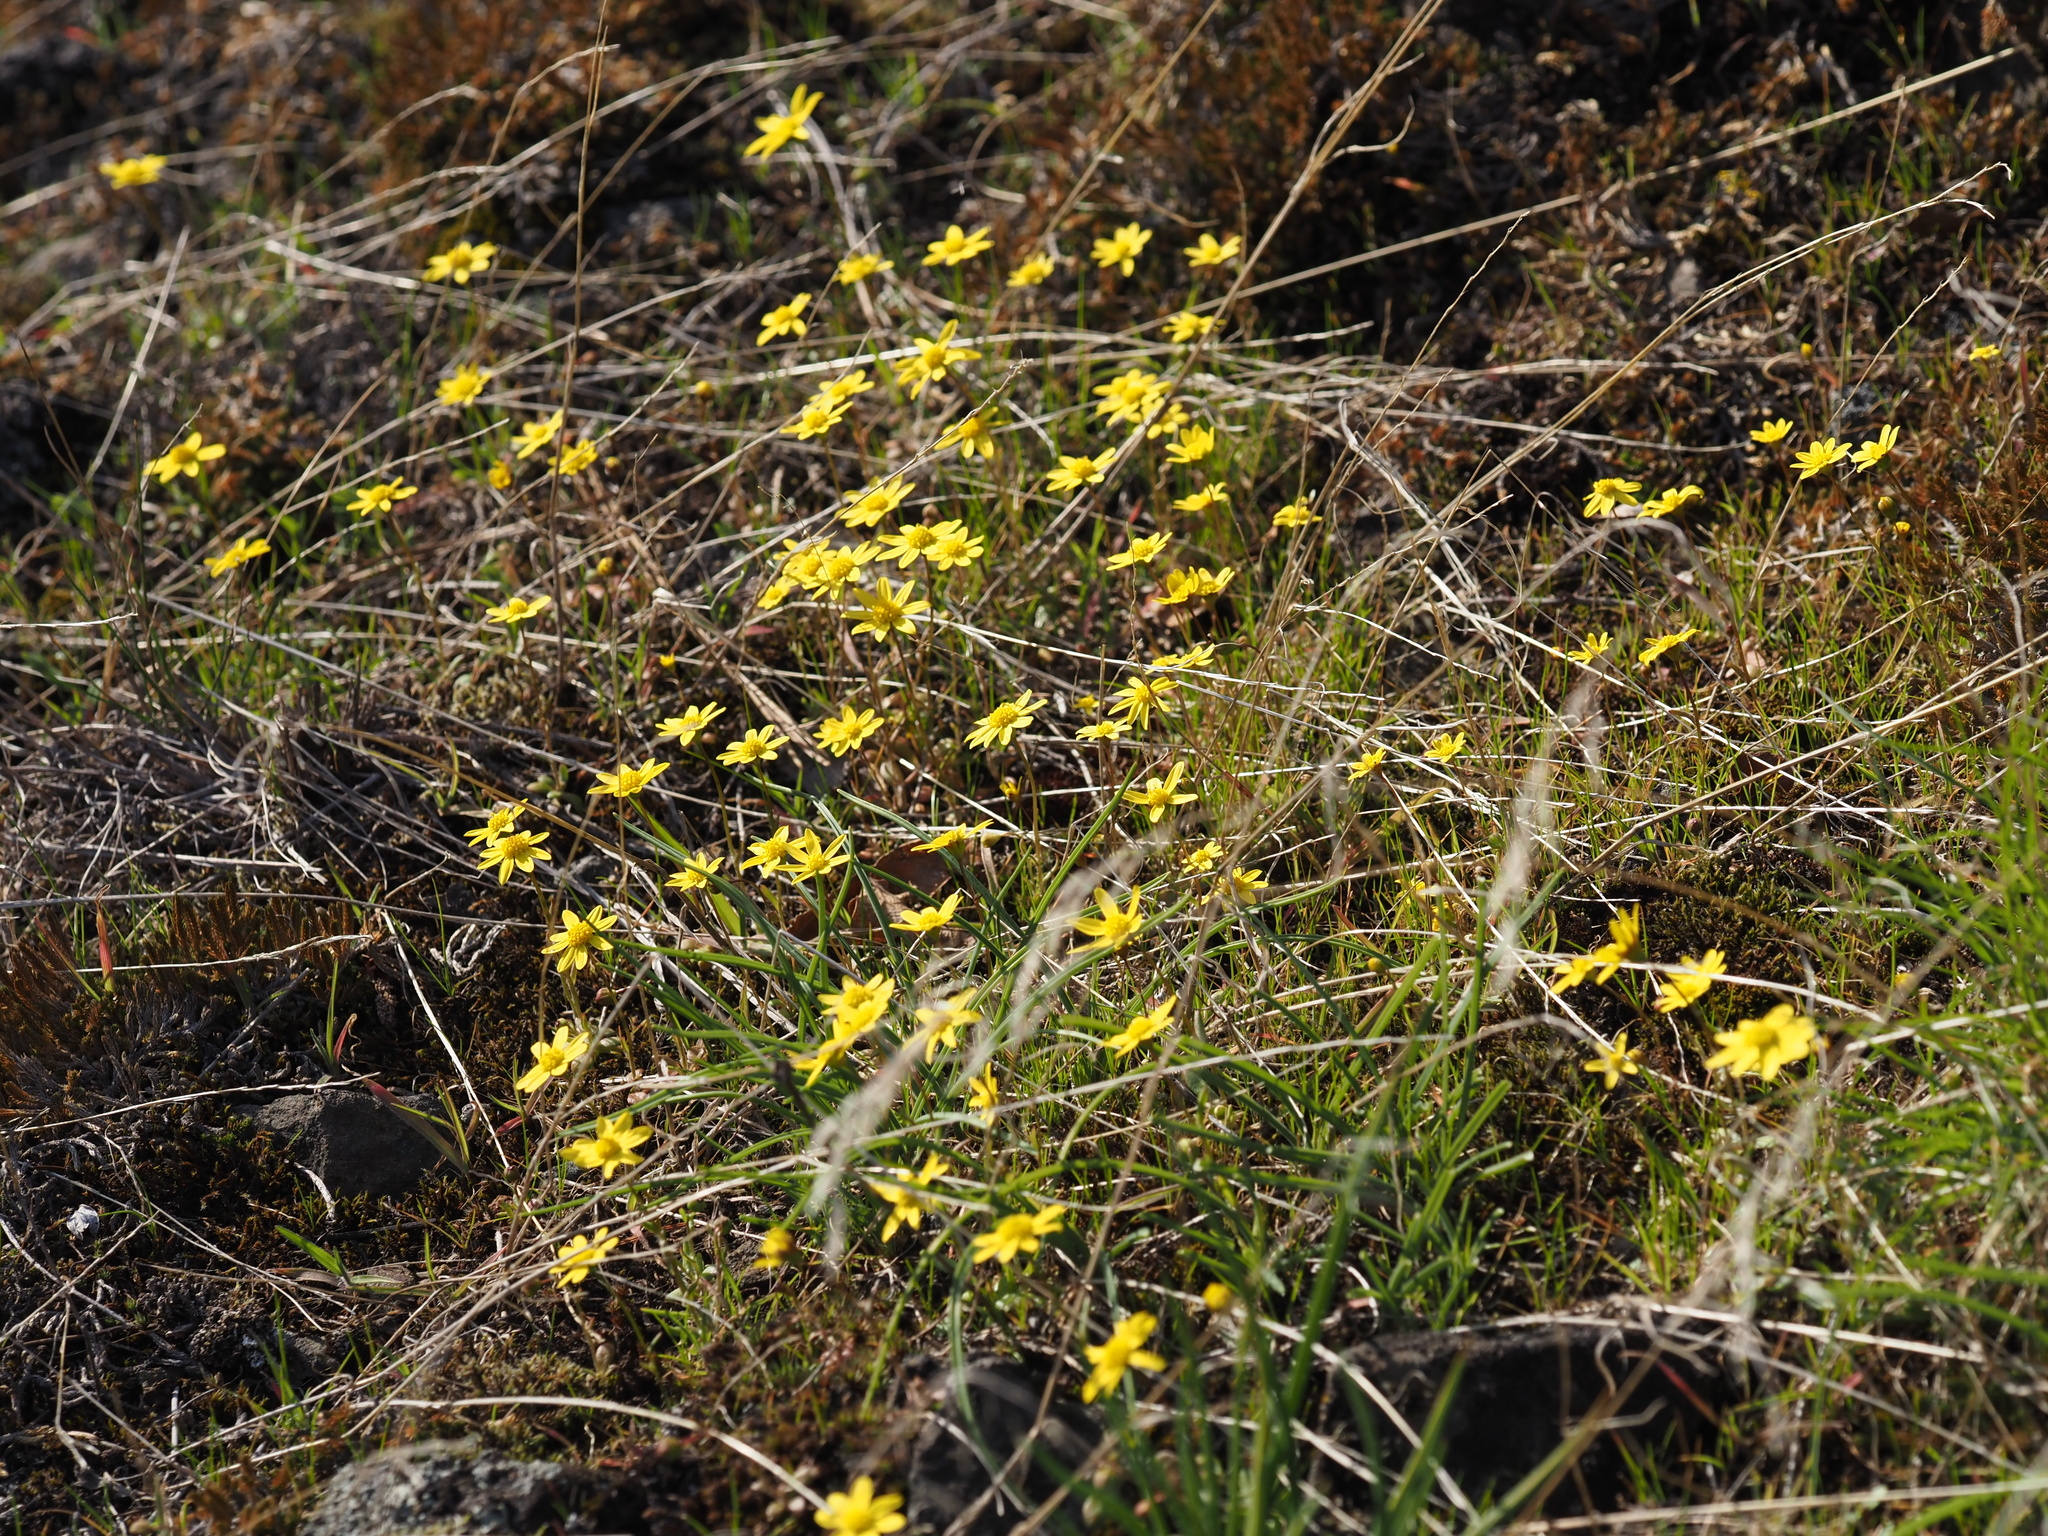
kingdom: Plantae
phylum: Tracheophyta
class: Magnoliopsida
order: Asterales
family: Asteraceae
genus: Crocidium
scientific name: Crocidium multicaule
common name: Common spring gold
